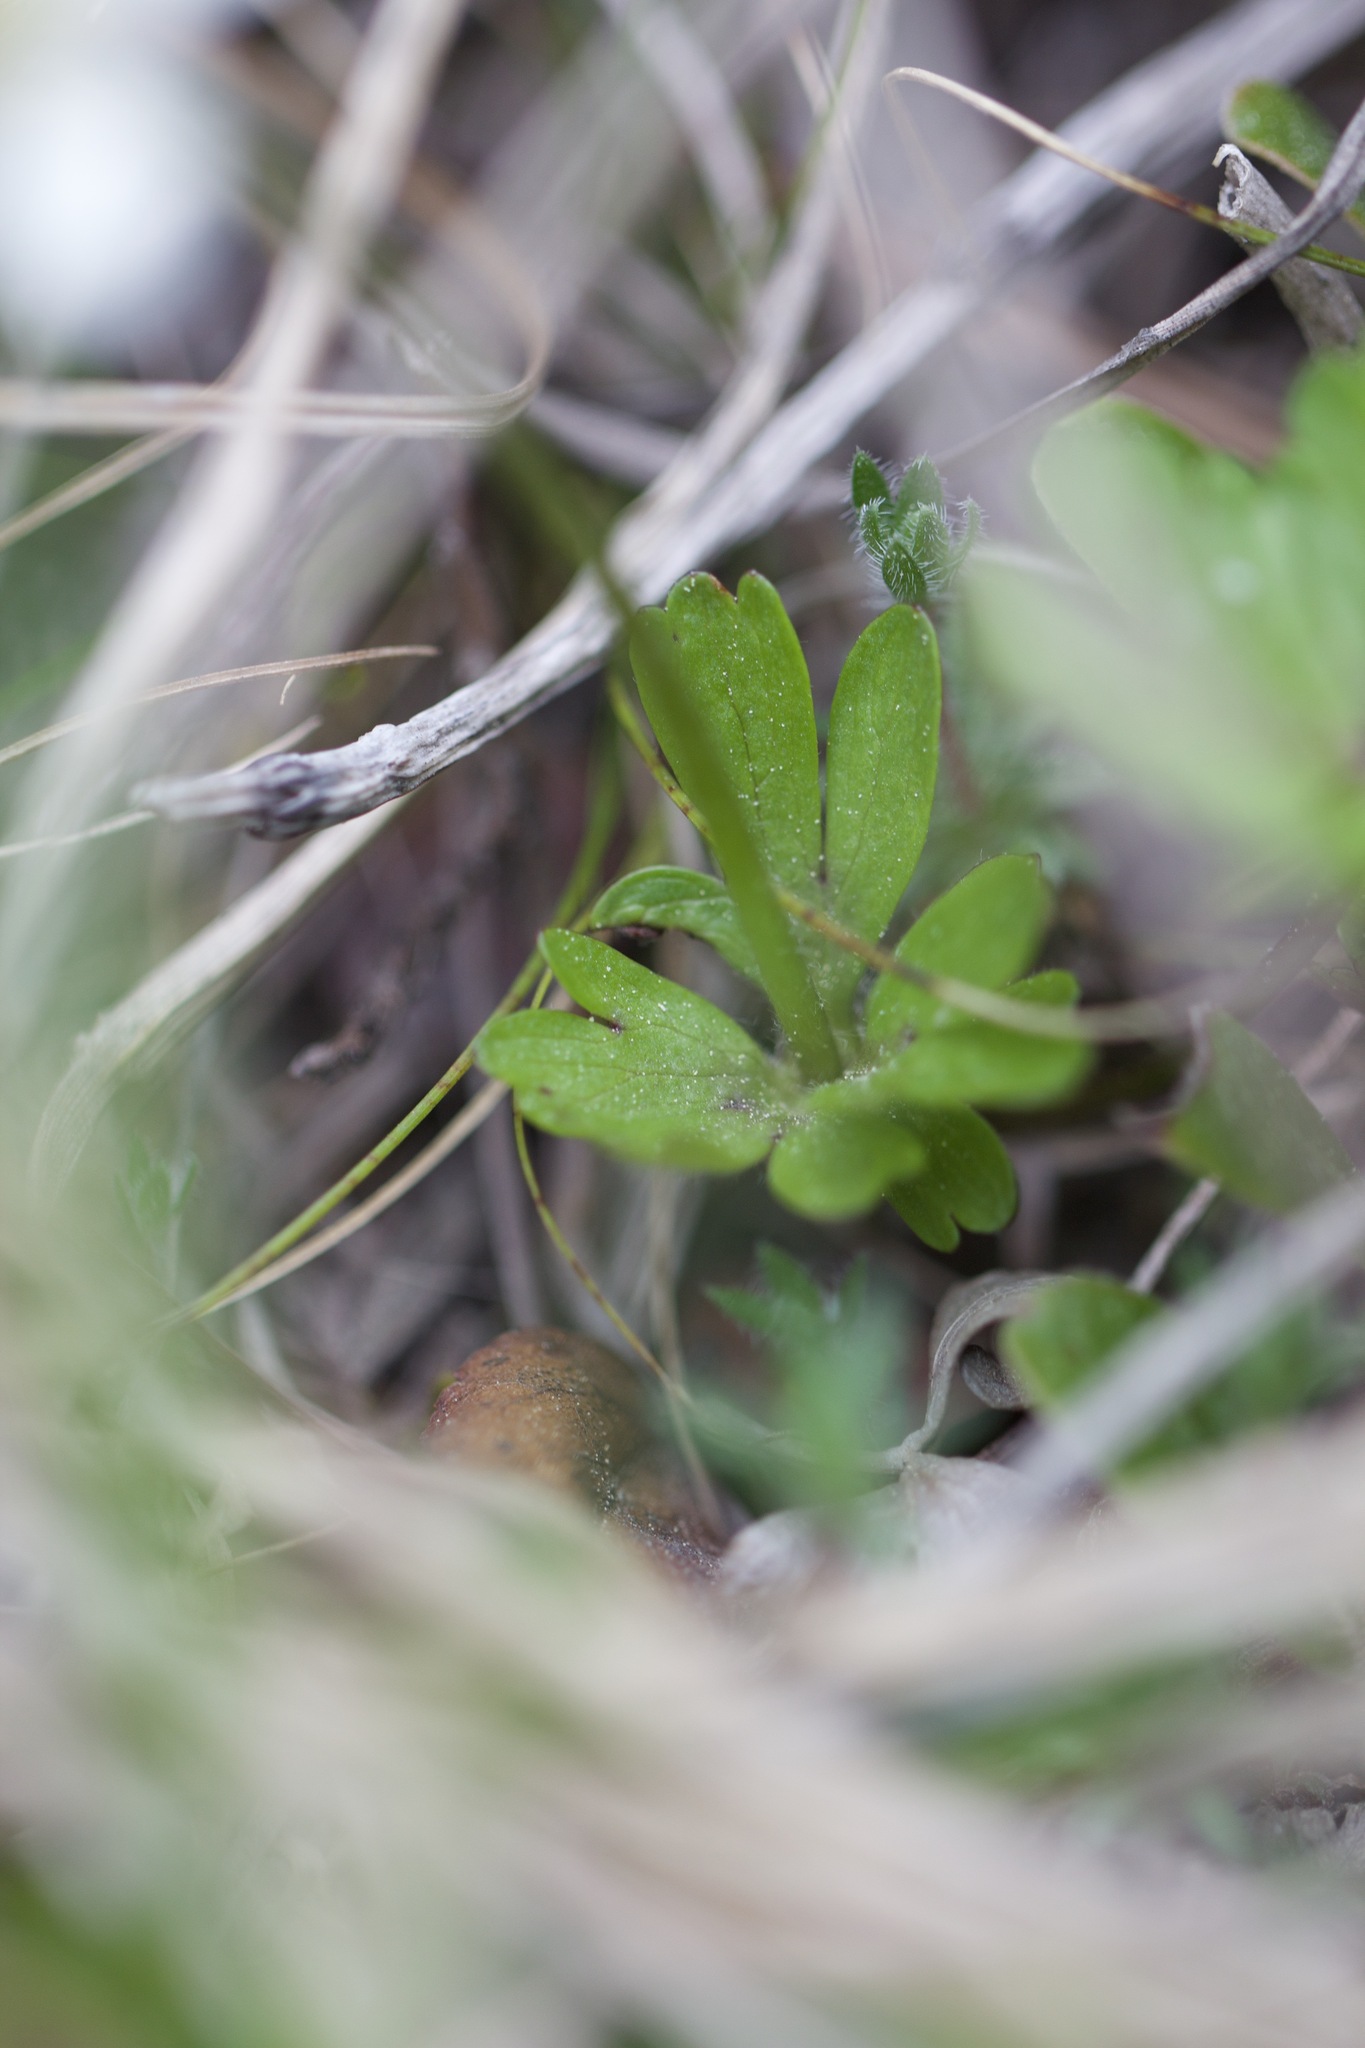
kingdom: Plantae
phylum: Tracheophyta
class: Magnoliopsida
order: Ranunculales
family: Ranunculaceae
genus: Anemone
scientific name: Anemone parviflora
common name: Northern anemone
